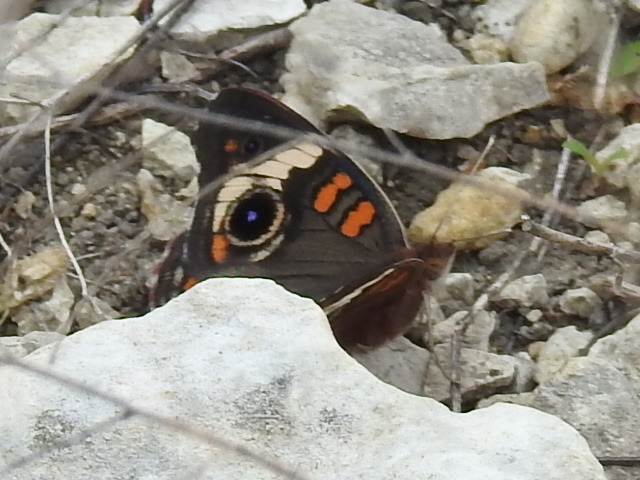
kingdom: Animalia
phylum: Arthropoda
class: Insecta
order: Lepidoptera
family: Nymphalidae
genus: Junonia
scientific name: Junonia coenia
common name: Common buckeye
